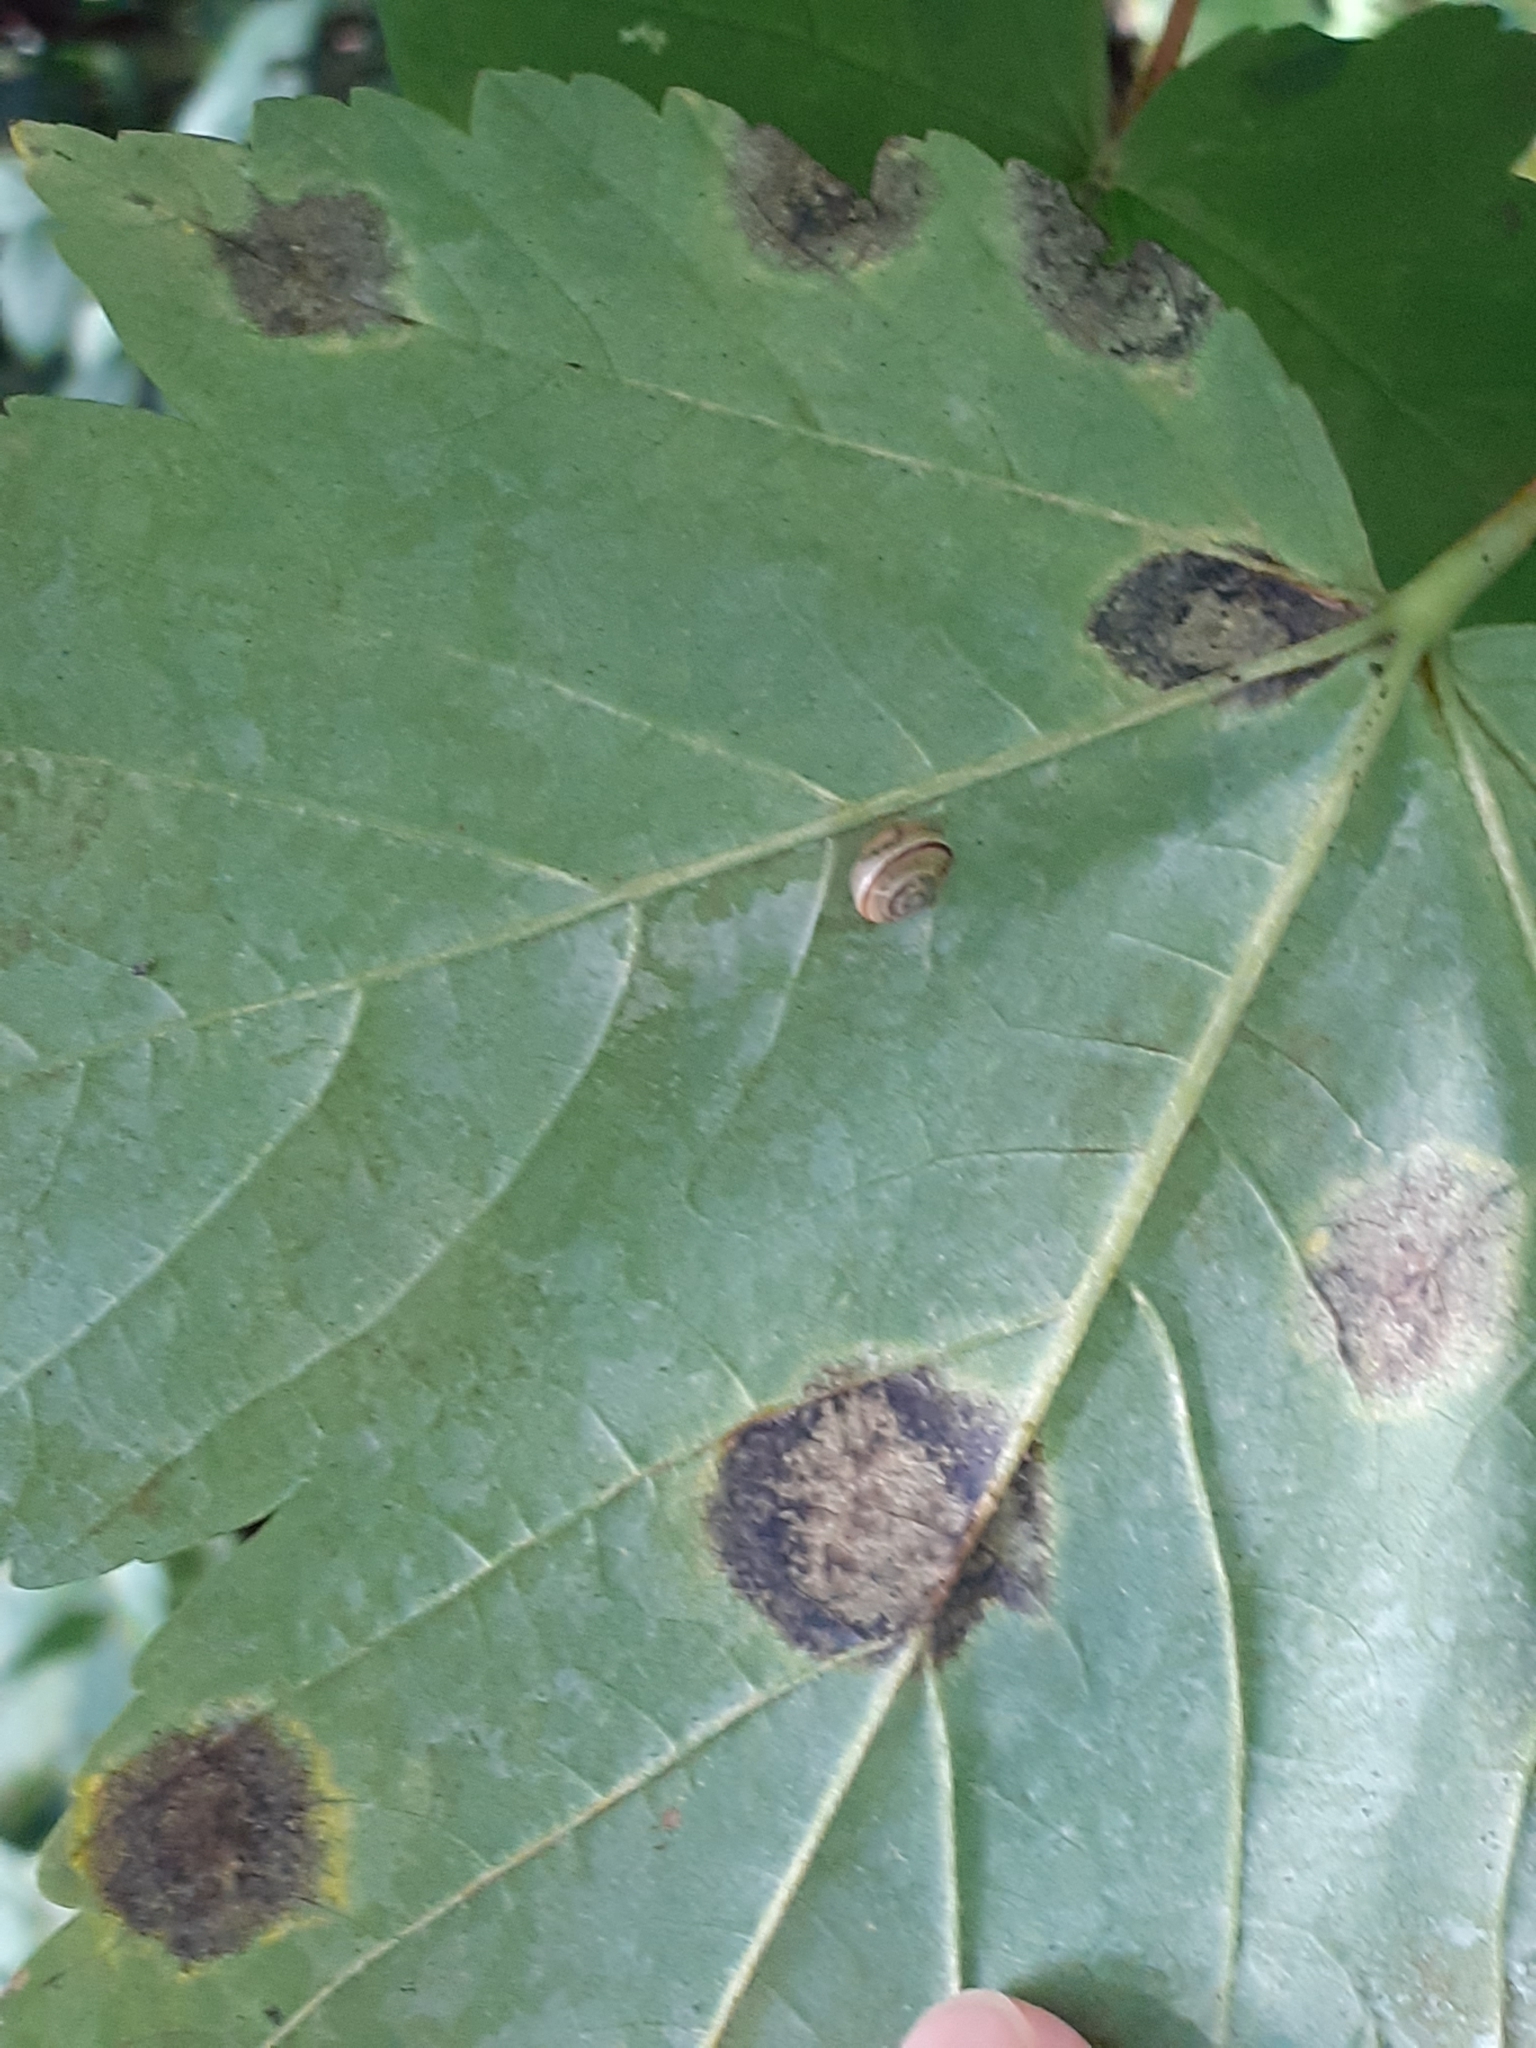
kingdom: Fungi
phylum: Ascomycota
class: Leotiomycetes
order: Rhytismatales
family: Rhytismataceae
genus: Rhytisma
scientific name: Rhytisma acerinum
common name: European tar spot
